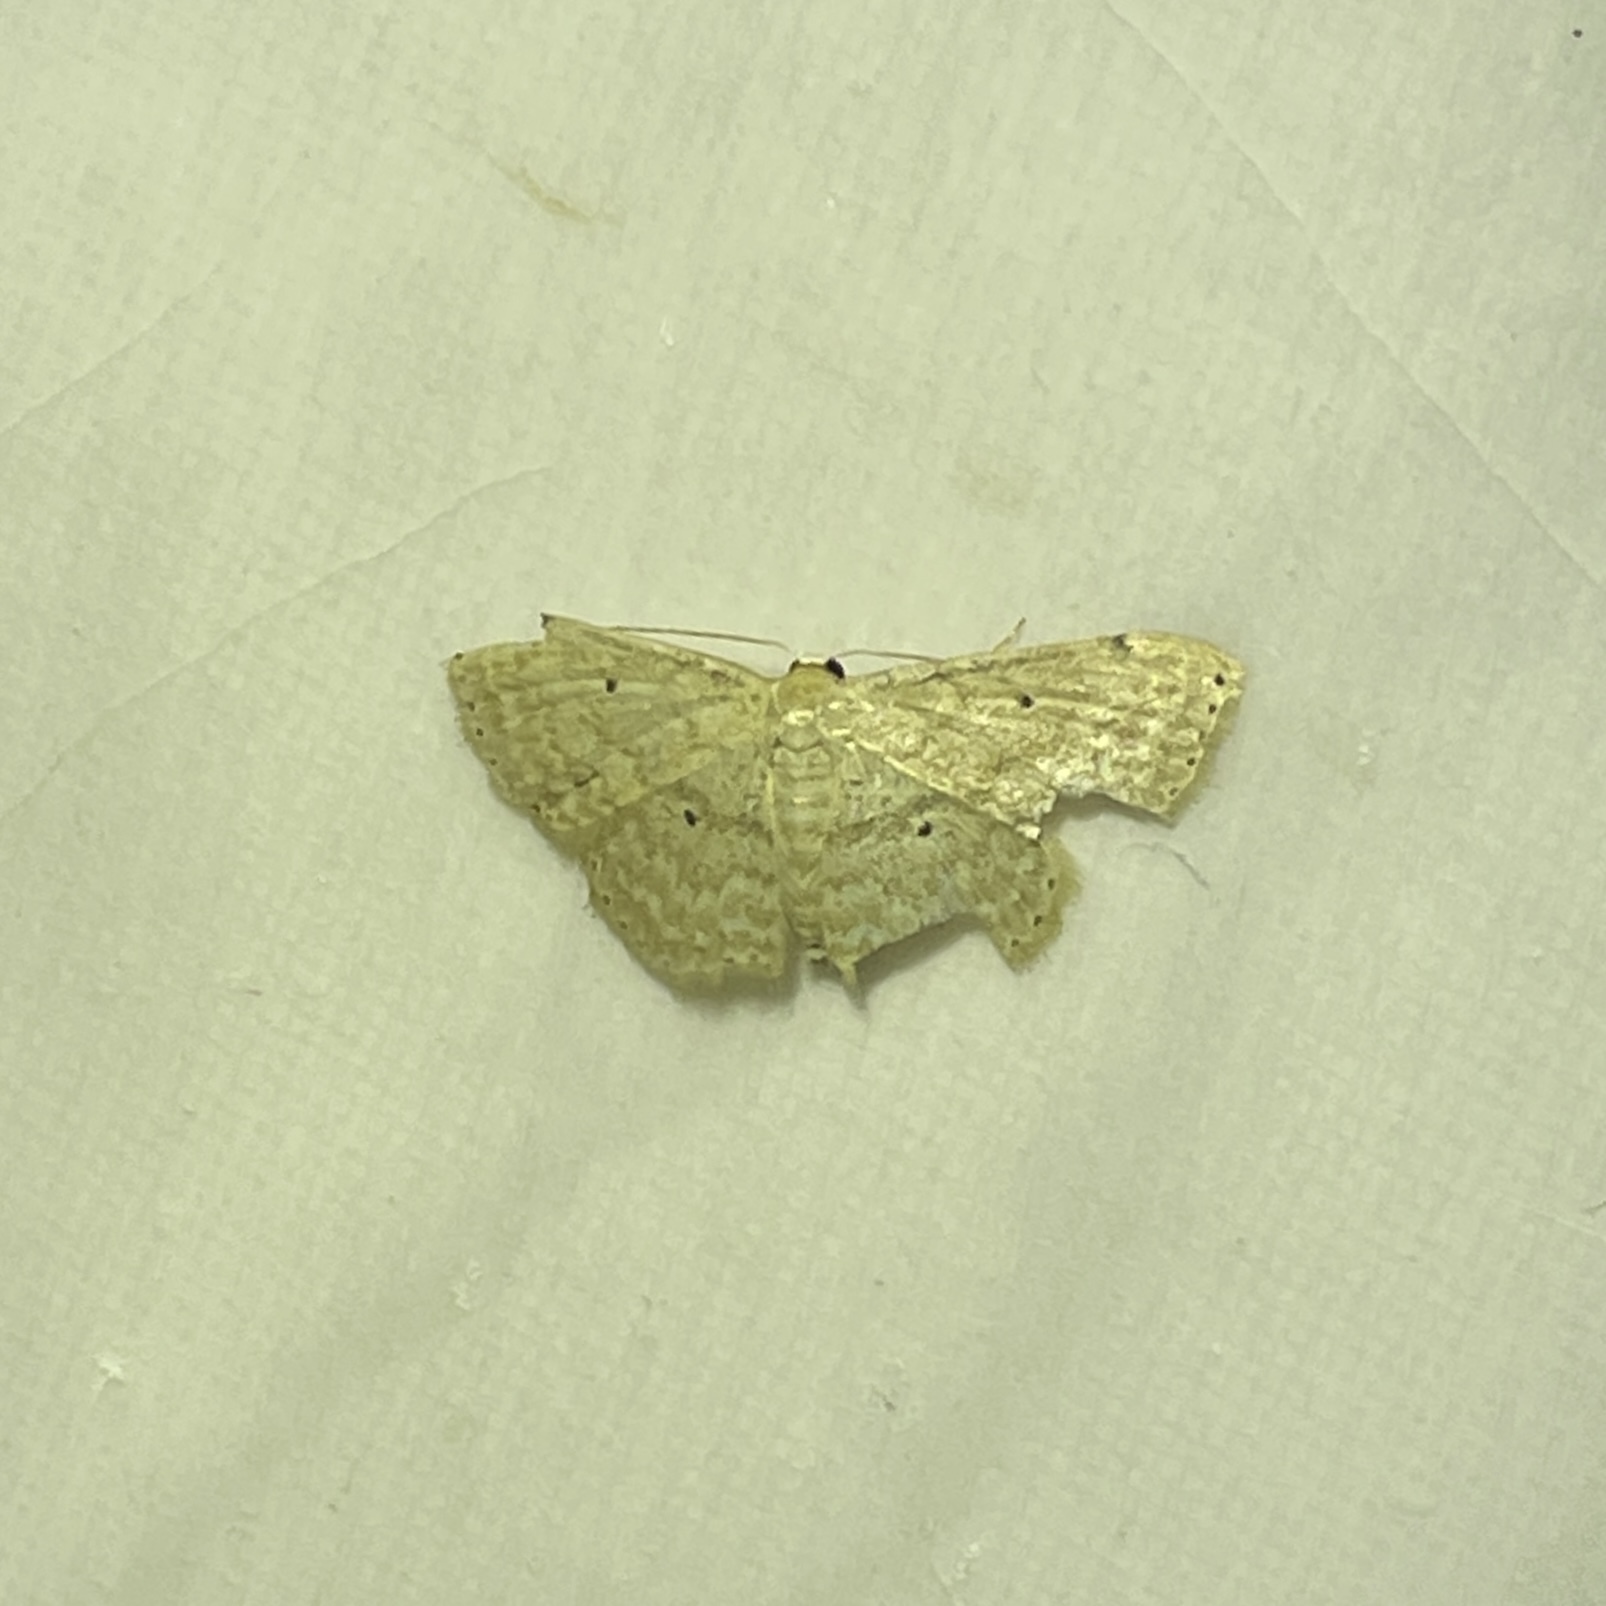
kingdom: Animalia
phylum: Arthropoda
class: Insecta
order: Lepidoptera
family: Geometridae
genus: Scopula
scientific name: Scopula apparitaria
